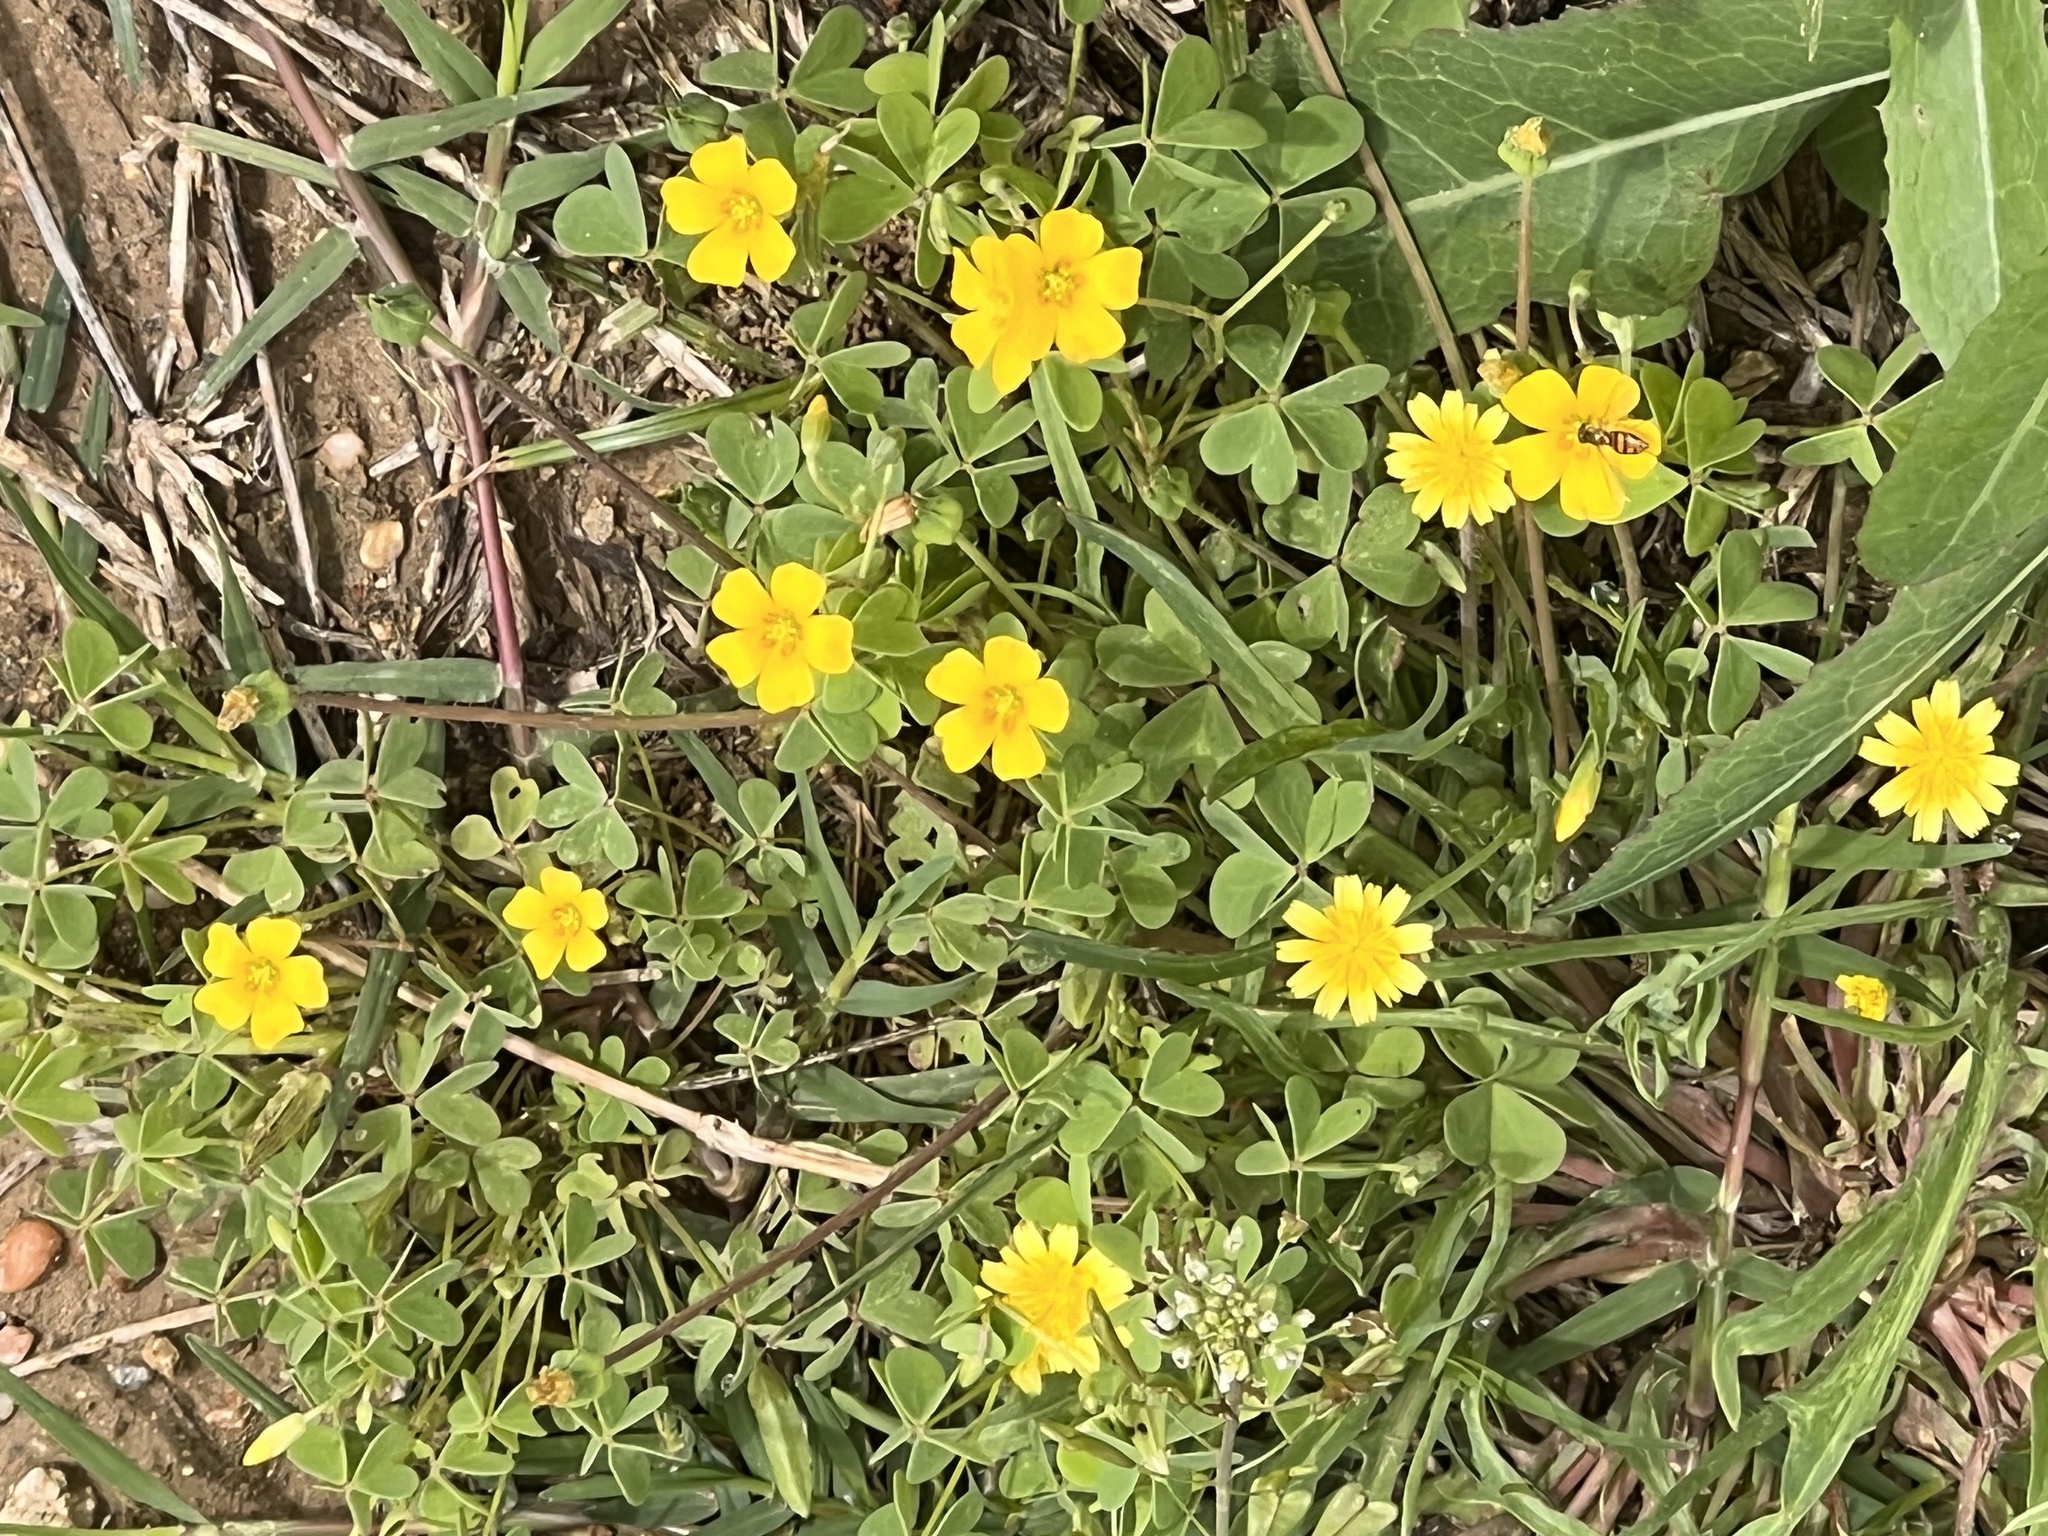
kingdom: Plantae
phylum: Tracheophyta
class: Magnoliopsida
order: Oxalidales
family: Oxalidaceae
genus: Oxalis
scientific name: Oxalis dillenii
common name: Sussex yellow-sorrel
